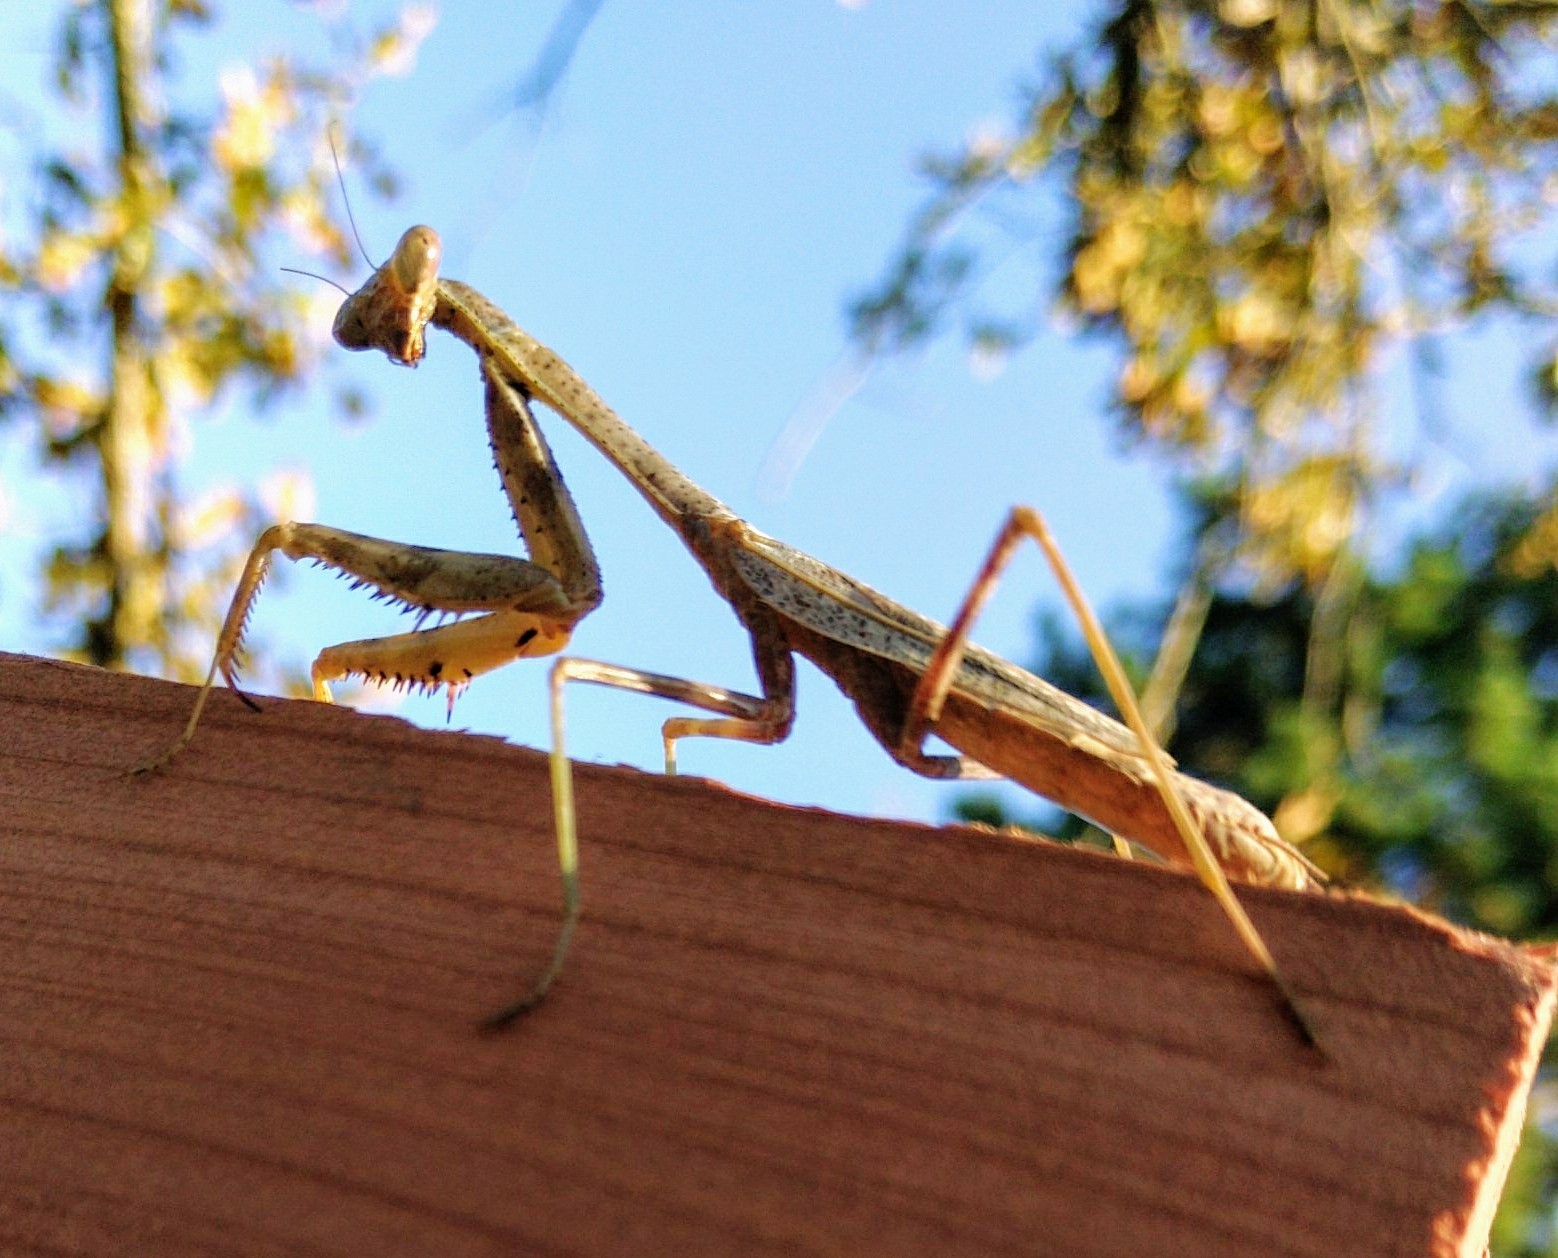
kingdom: Animalia
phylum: Arthropoda
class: Insecta
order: Mantodea
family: Mantidae
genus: Stagmomantis
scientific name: Stagmomantis carolina
